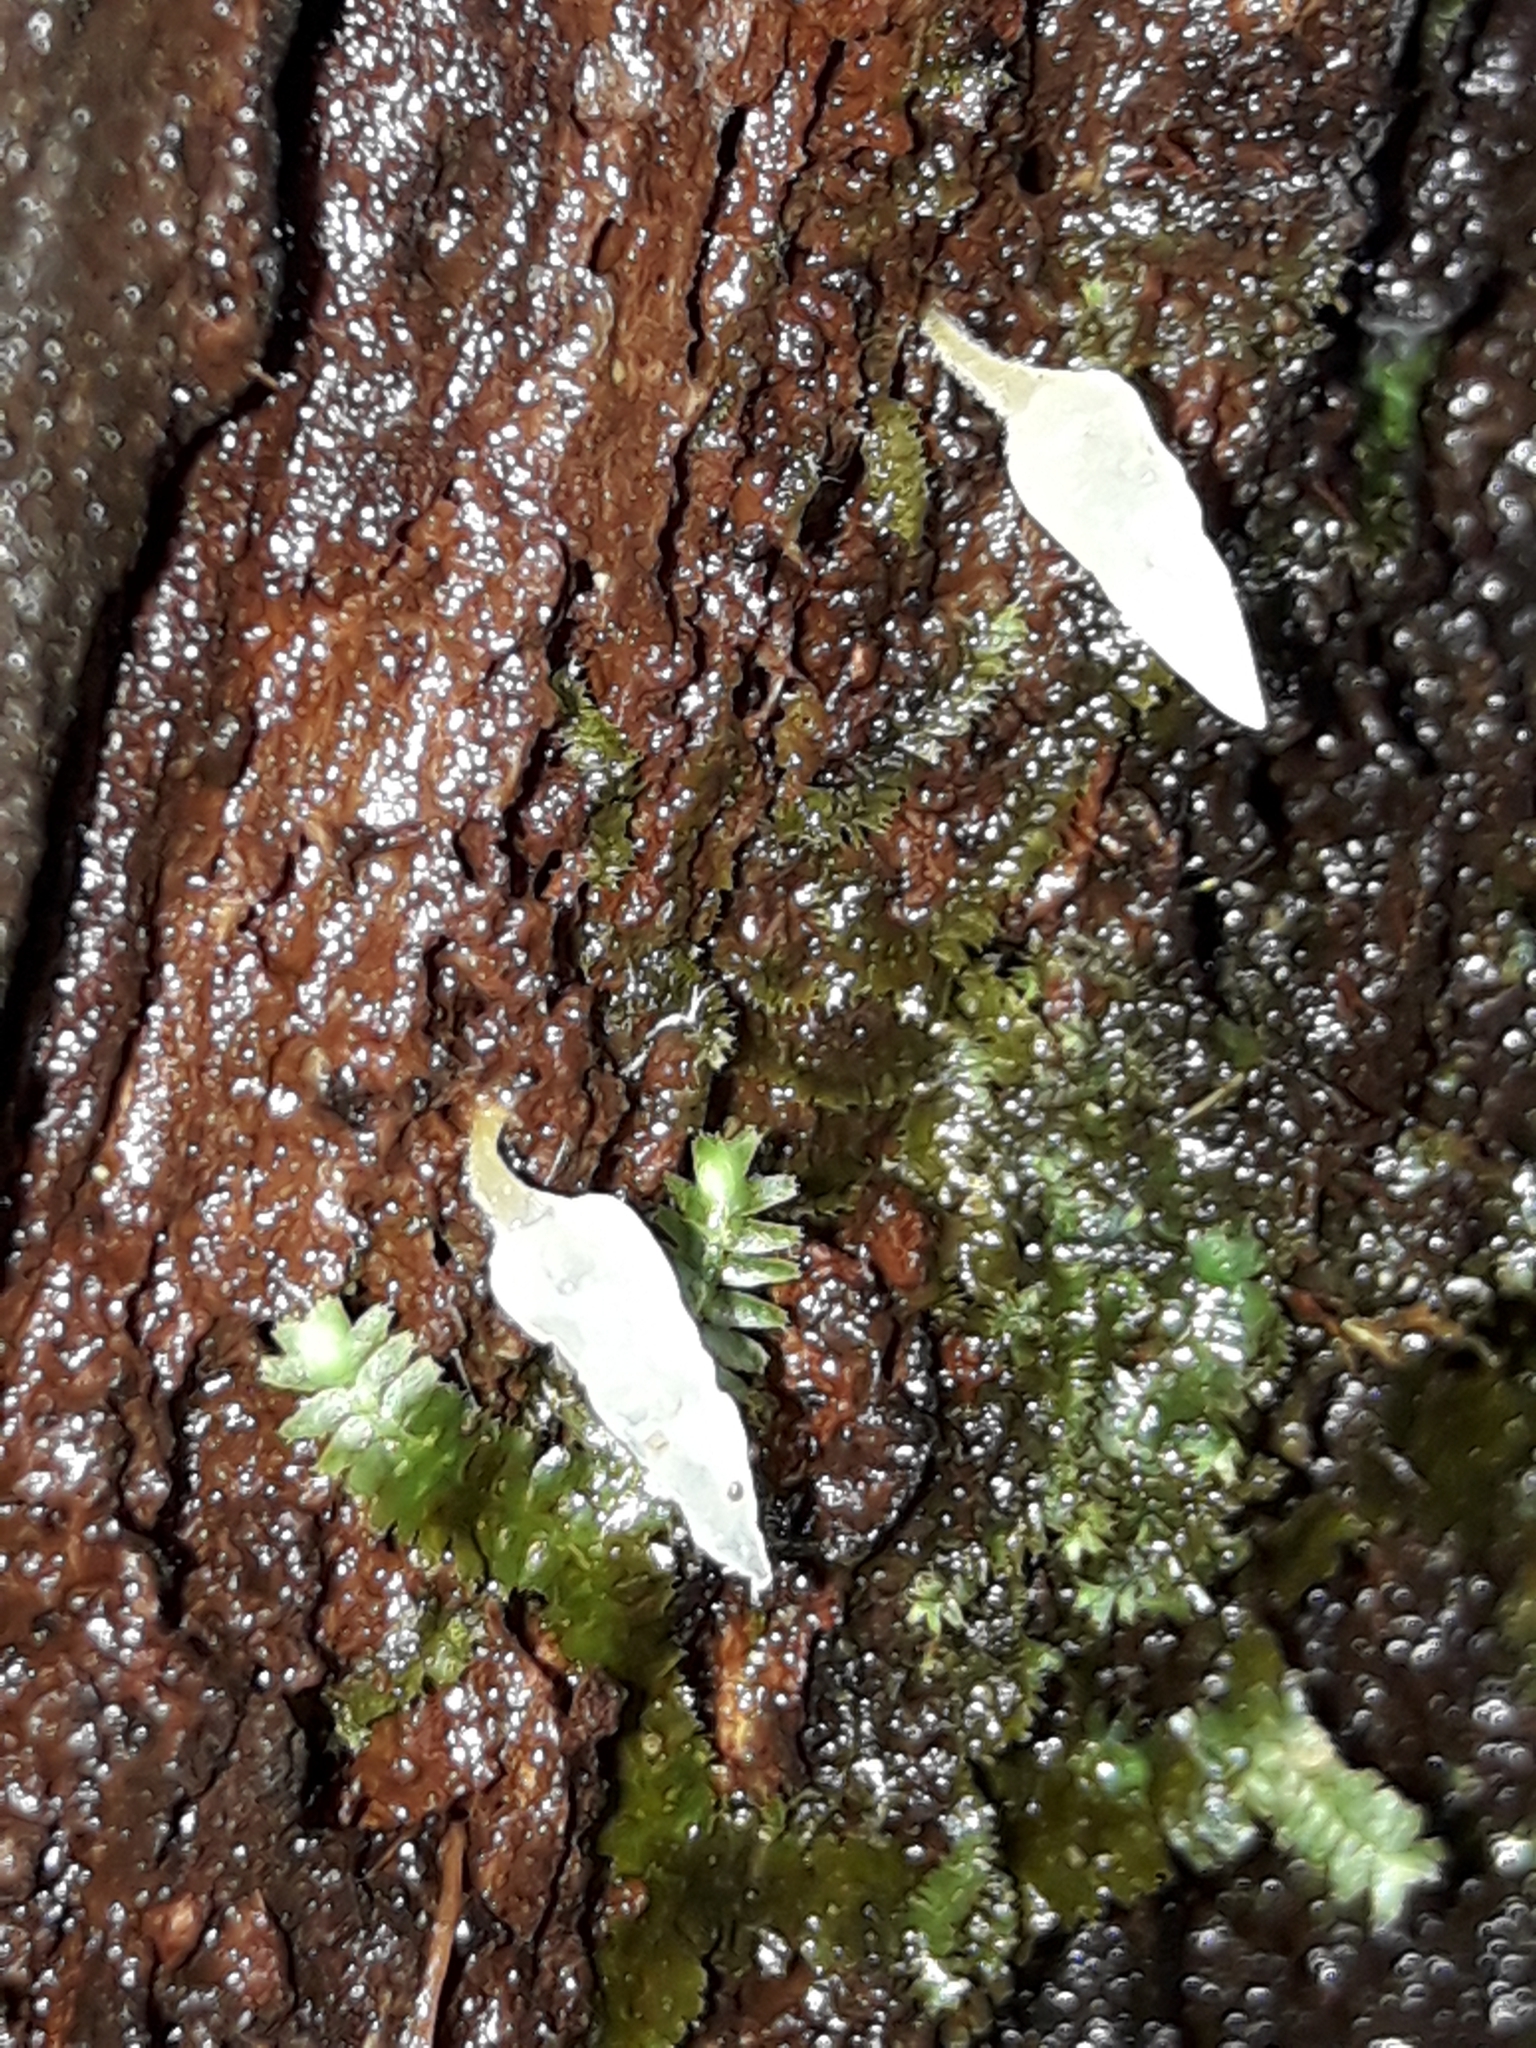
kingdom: Fungi
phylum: Basidiomycota
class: Agaricomycetes
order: Agaricales
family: Clavariaceae
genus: Mucronella
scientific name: Mucronella pendula
